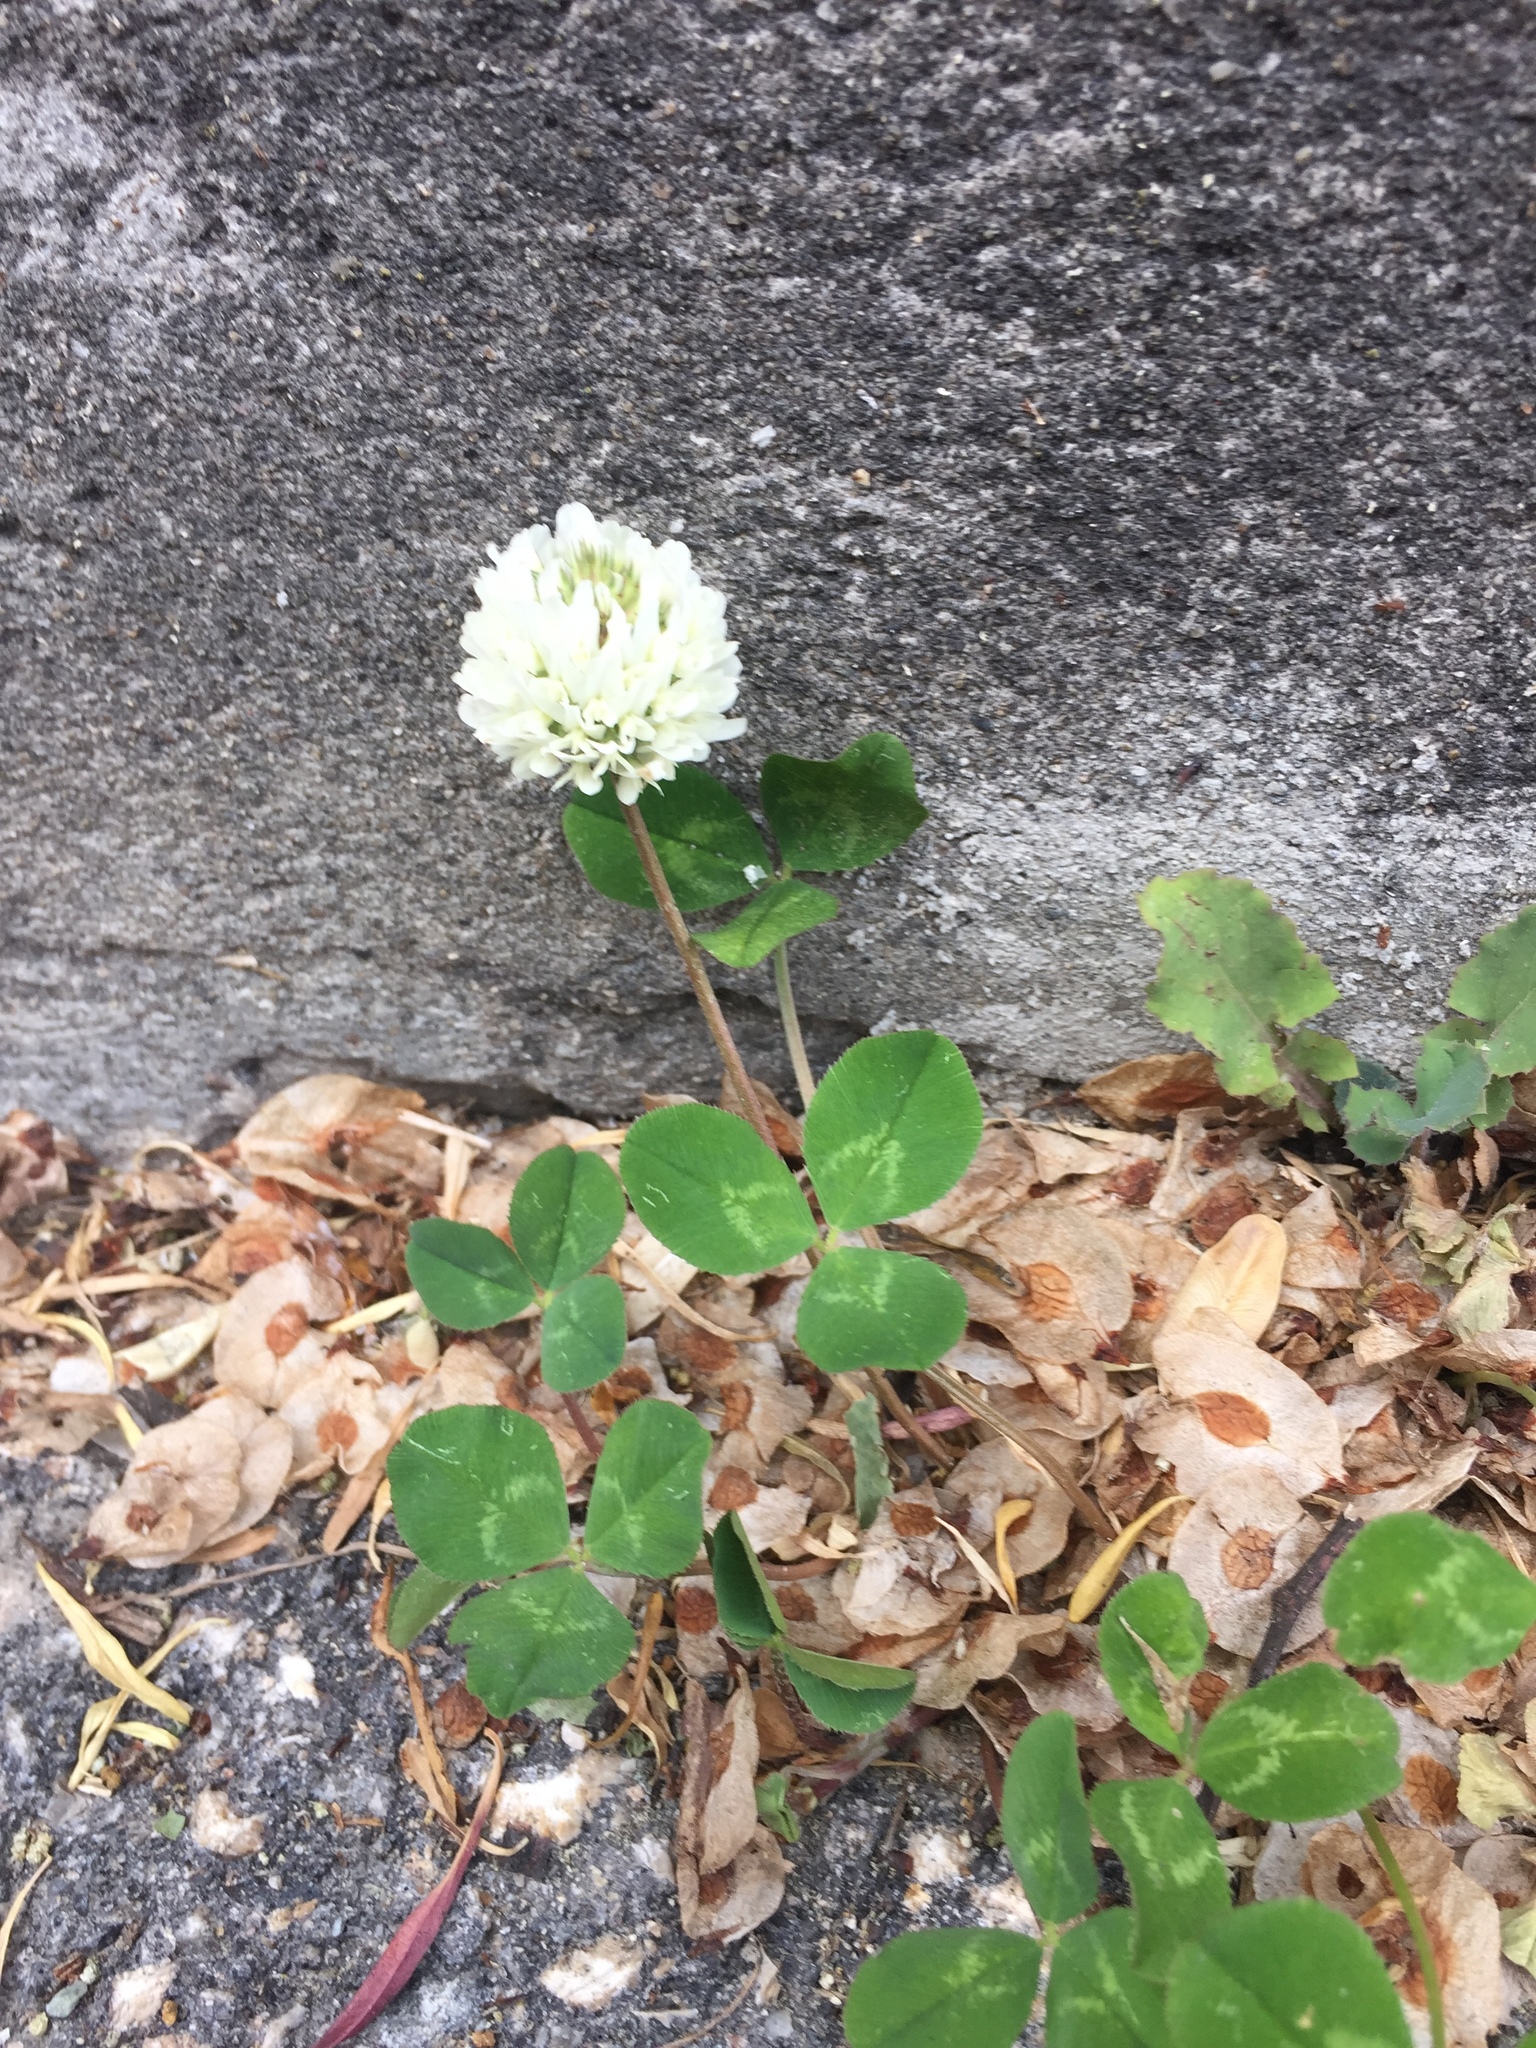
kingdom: Plantae
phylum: Tracheophyta
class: Magnoliopsida
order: Fabales
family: Fabaceae
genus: Trifolium
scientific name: Trifolium repens
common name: White clover
